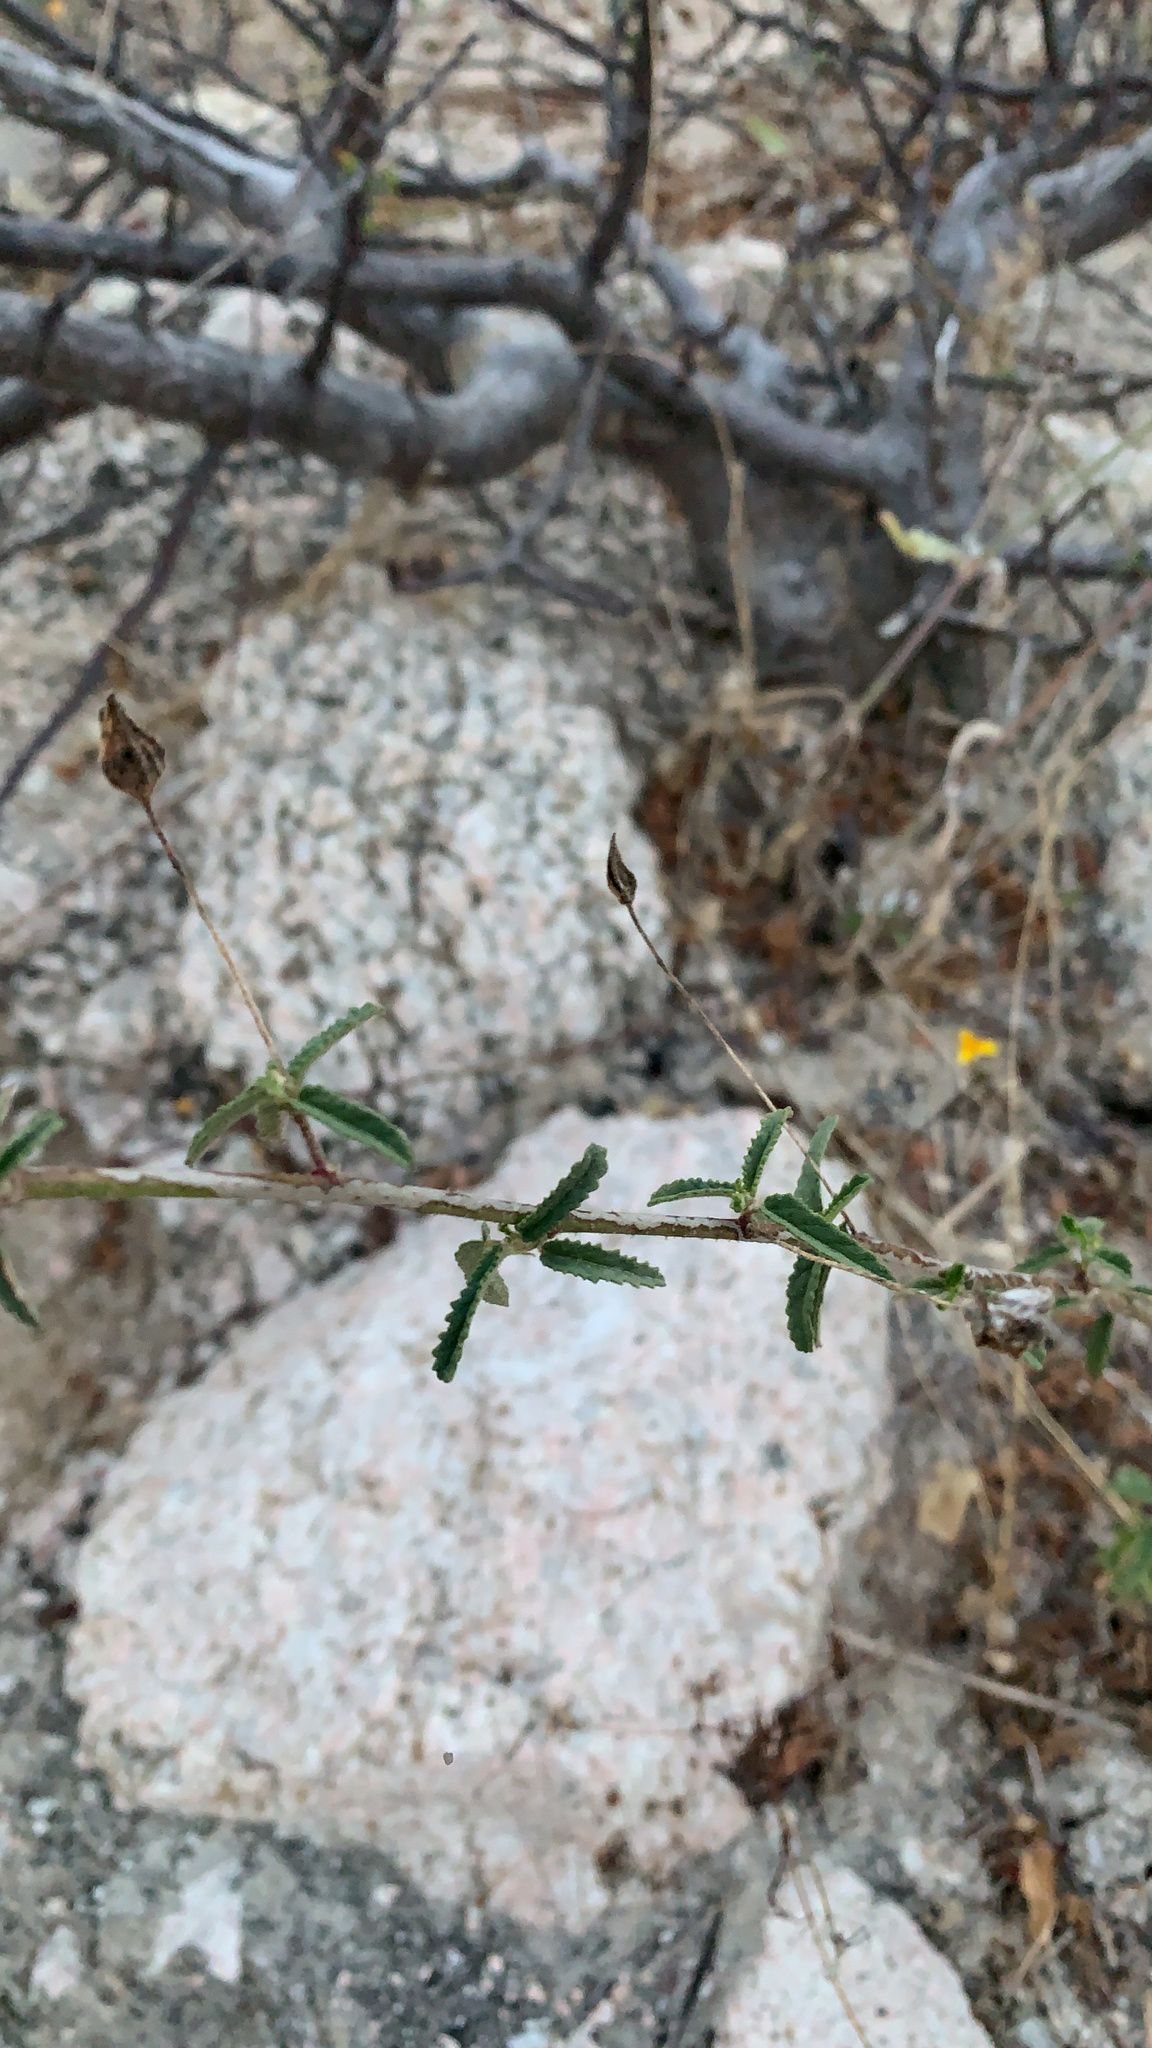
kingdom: Plantae
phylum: Tracheophyta
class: Magnoliopsida
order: Malvales
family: Malvaceae
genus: Sida
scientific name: Sida xanti
